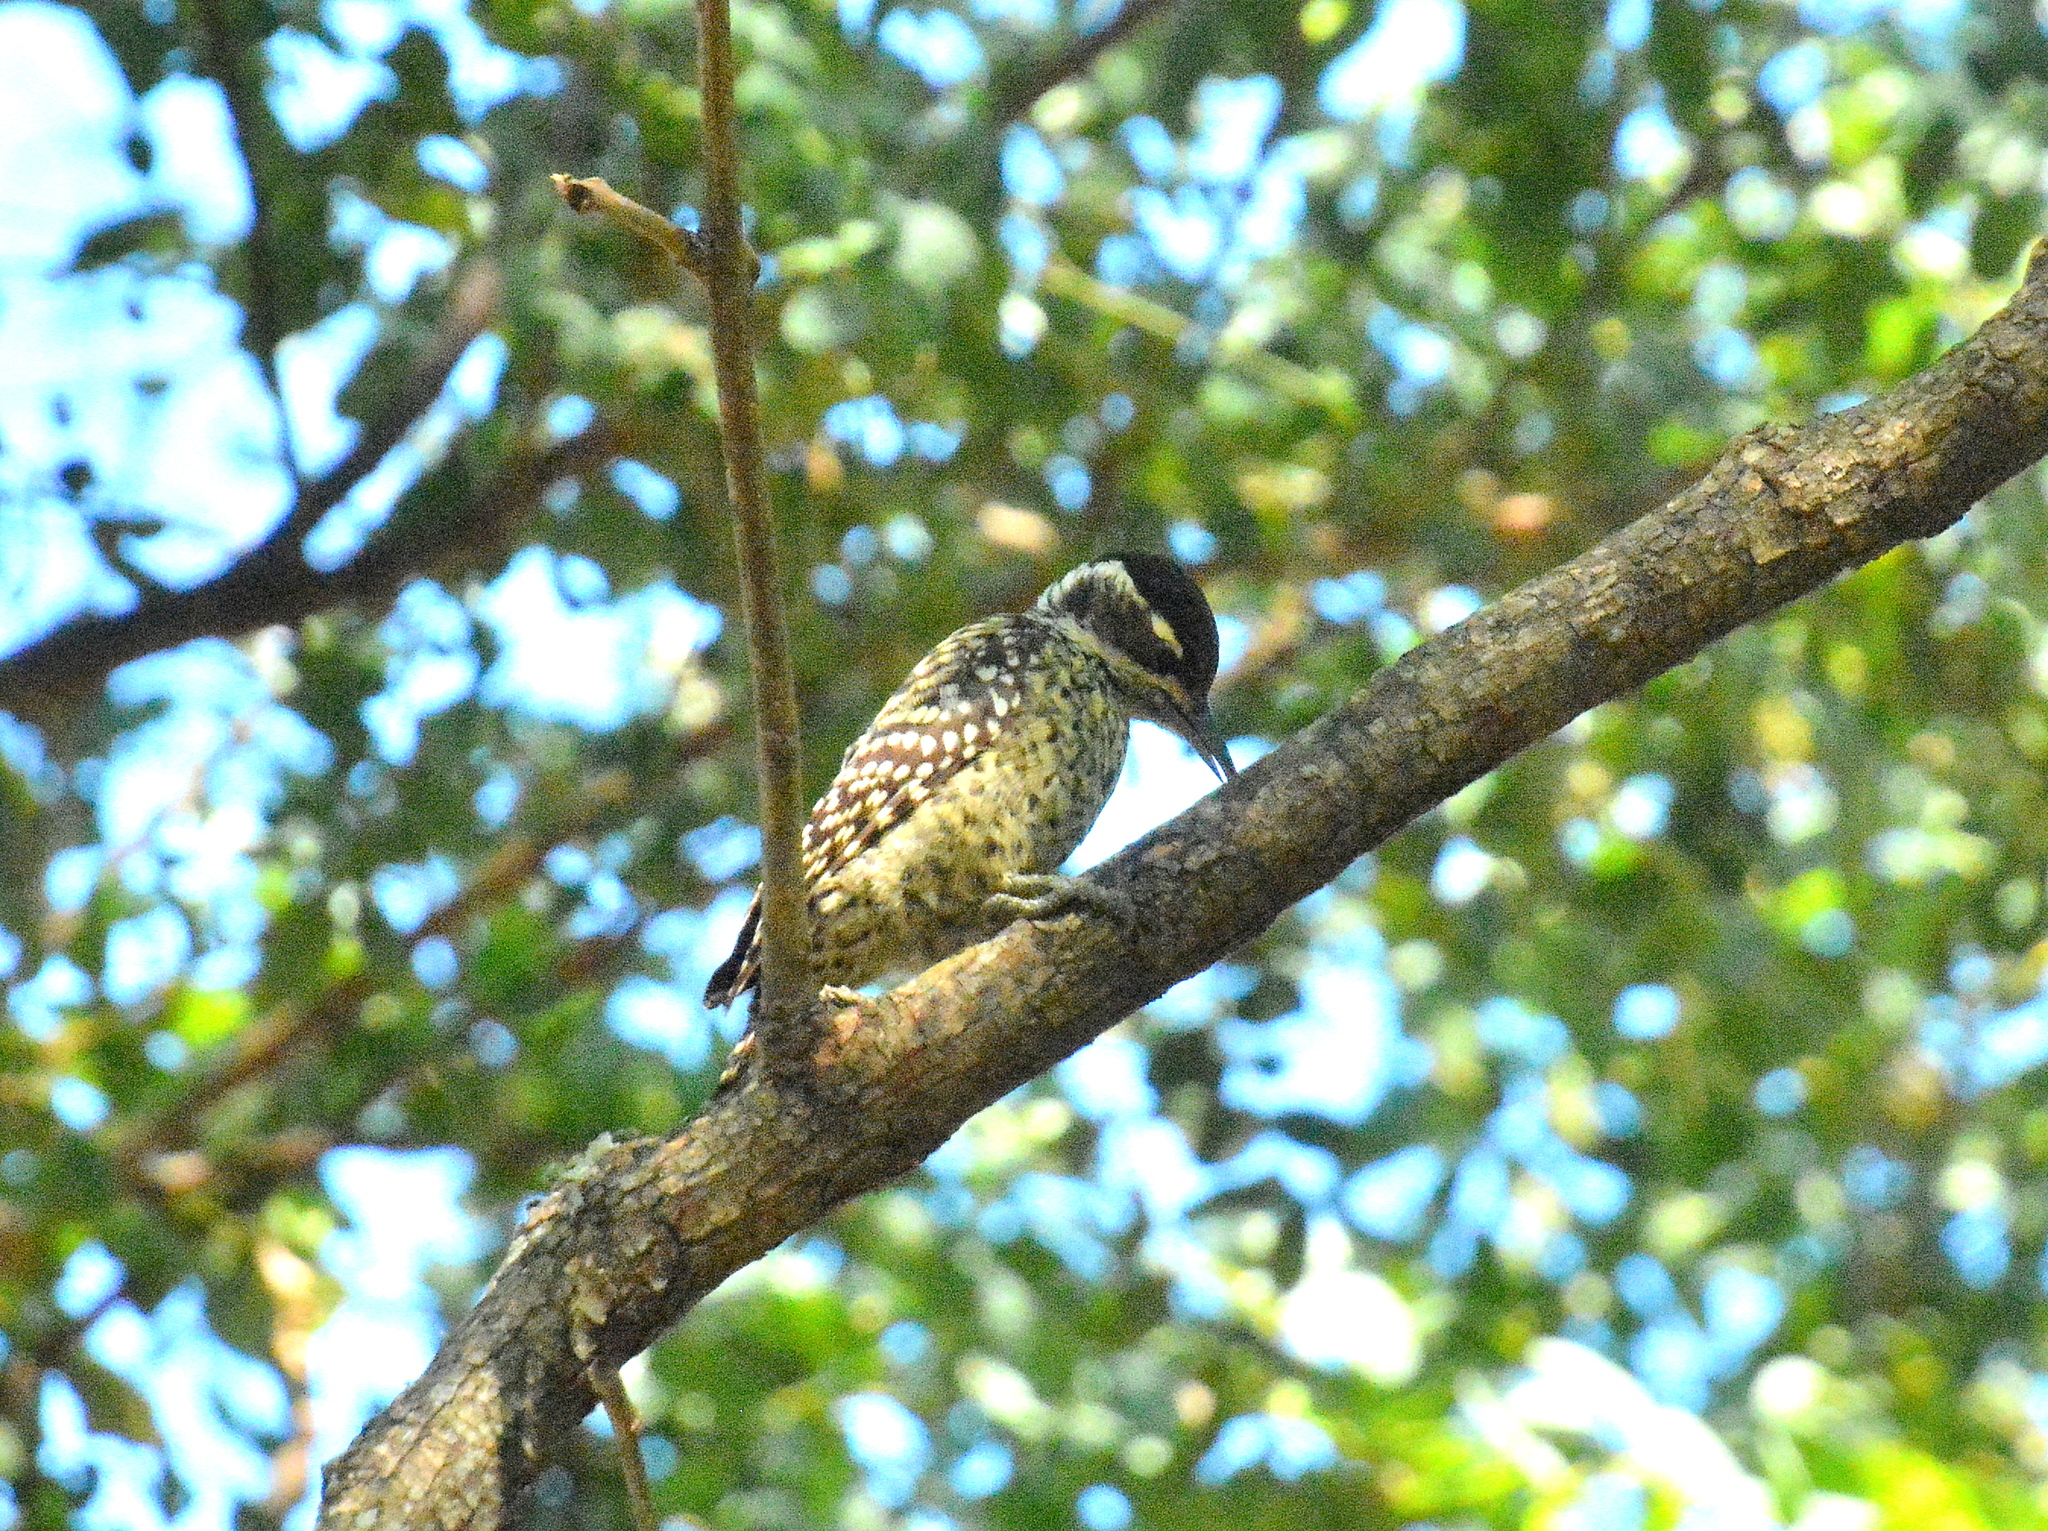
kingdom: Animalia
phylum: Chordata
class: Aves
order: Piciformes
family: Picidae
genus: Veniliornis
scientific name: Veniliornis mixtus
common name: Checkered woodpecker
